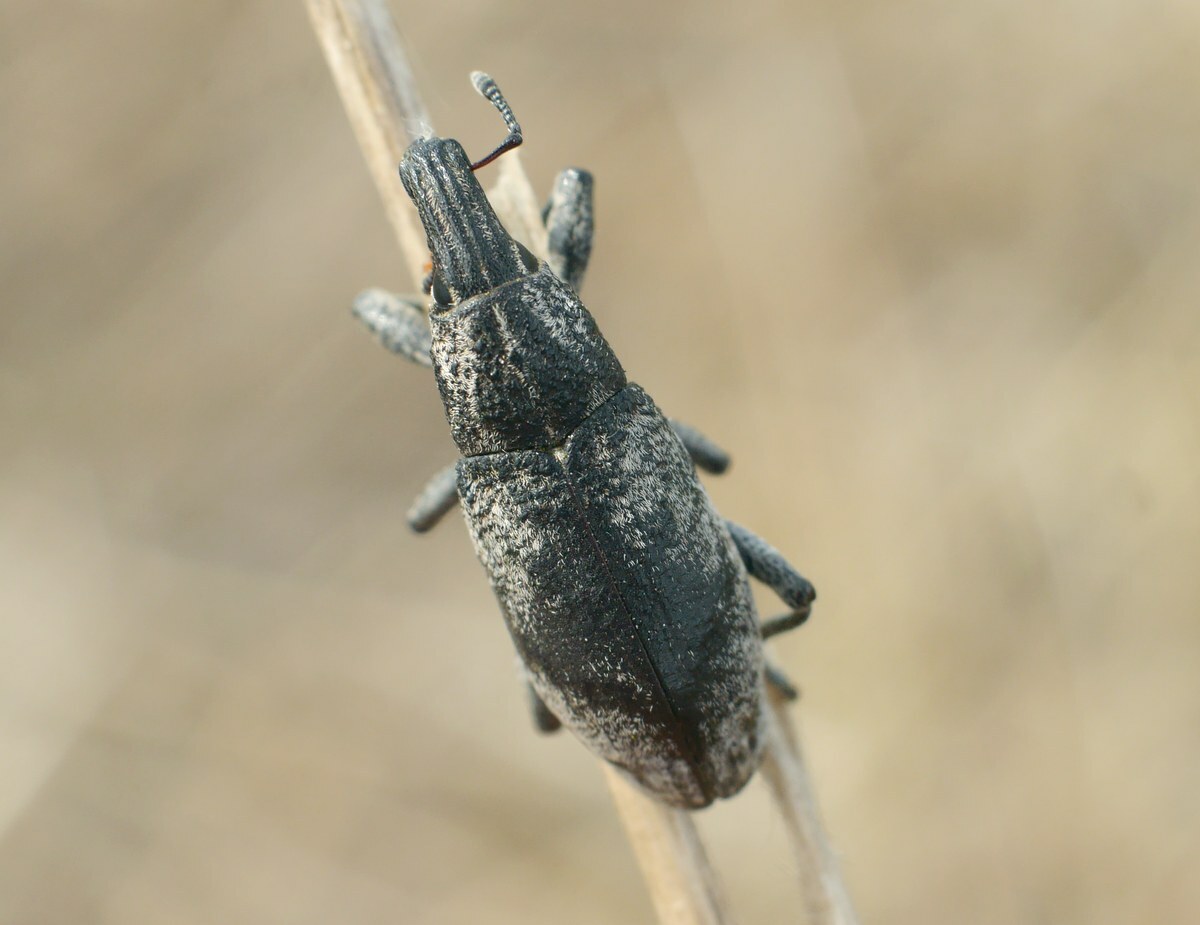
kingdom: Animalia
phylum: Arthropoda
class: Insecta
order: Coleoptera
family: Curculionidae
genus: Cleonis
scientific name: Cleonis pigra
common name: Large thistle weevil
